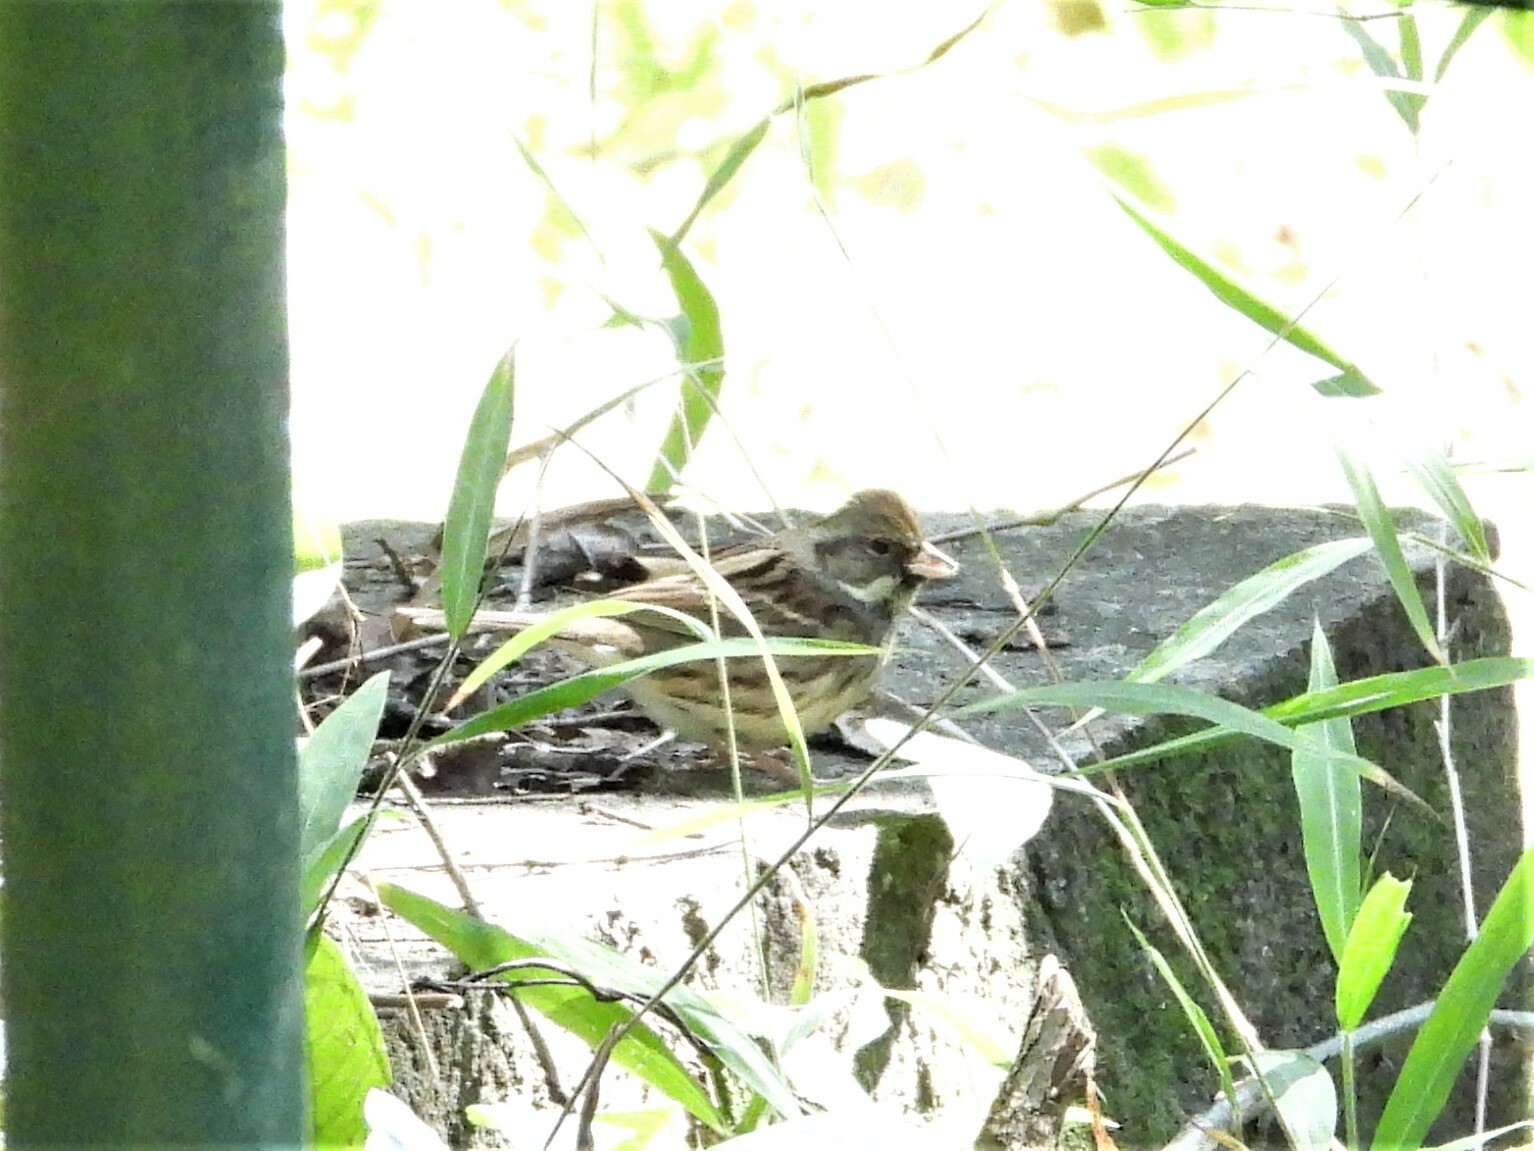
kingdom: Animalia
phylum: Chordata
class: Aves
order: Passeriformes
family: Emberizidae
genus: Emberiza
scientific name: Emberiza spodocephala
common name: Black-faced bunting
